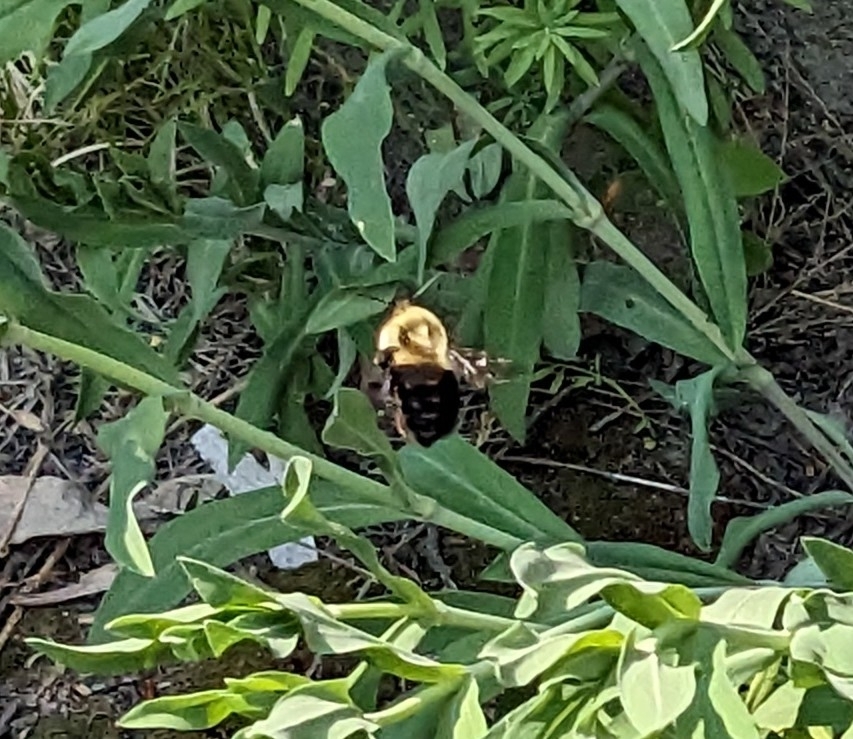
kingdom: Animalia
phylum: Arthropoda
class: Insecta
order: Hymenoptera
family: Apidae
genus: Bombus
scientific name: Bombus impatiens
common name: Common eastern bumble bee
